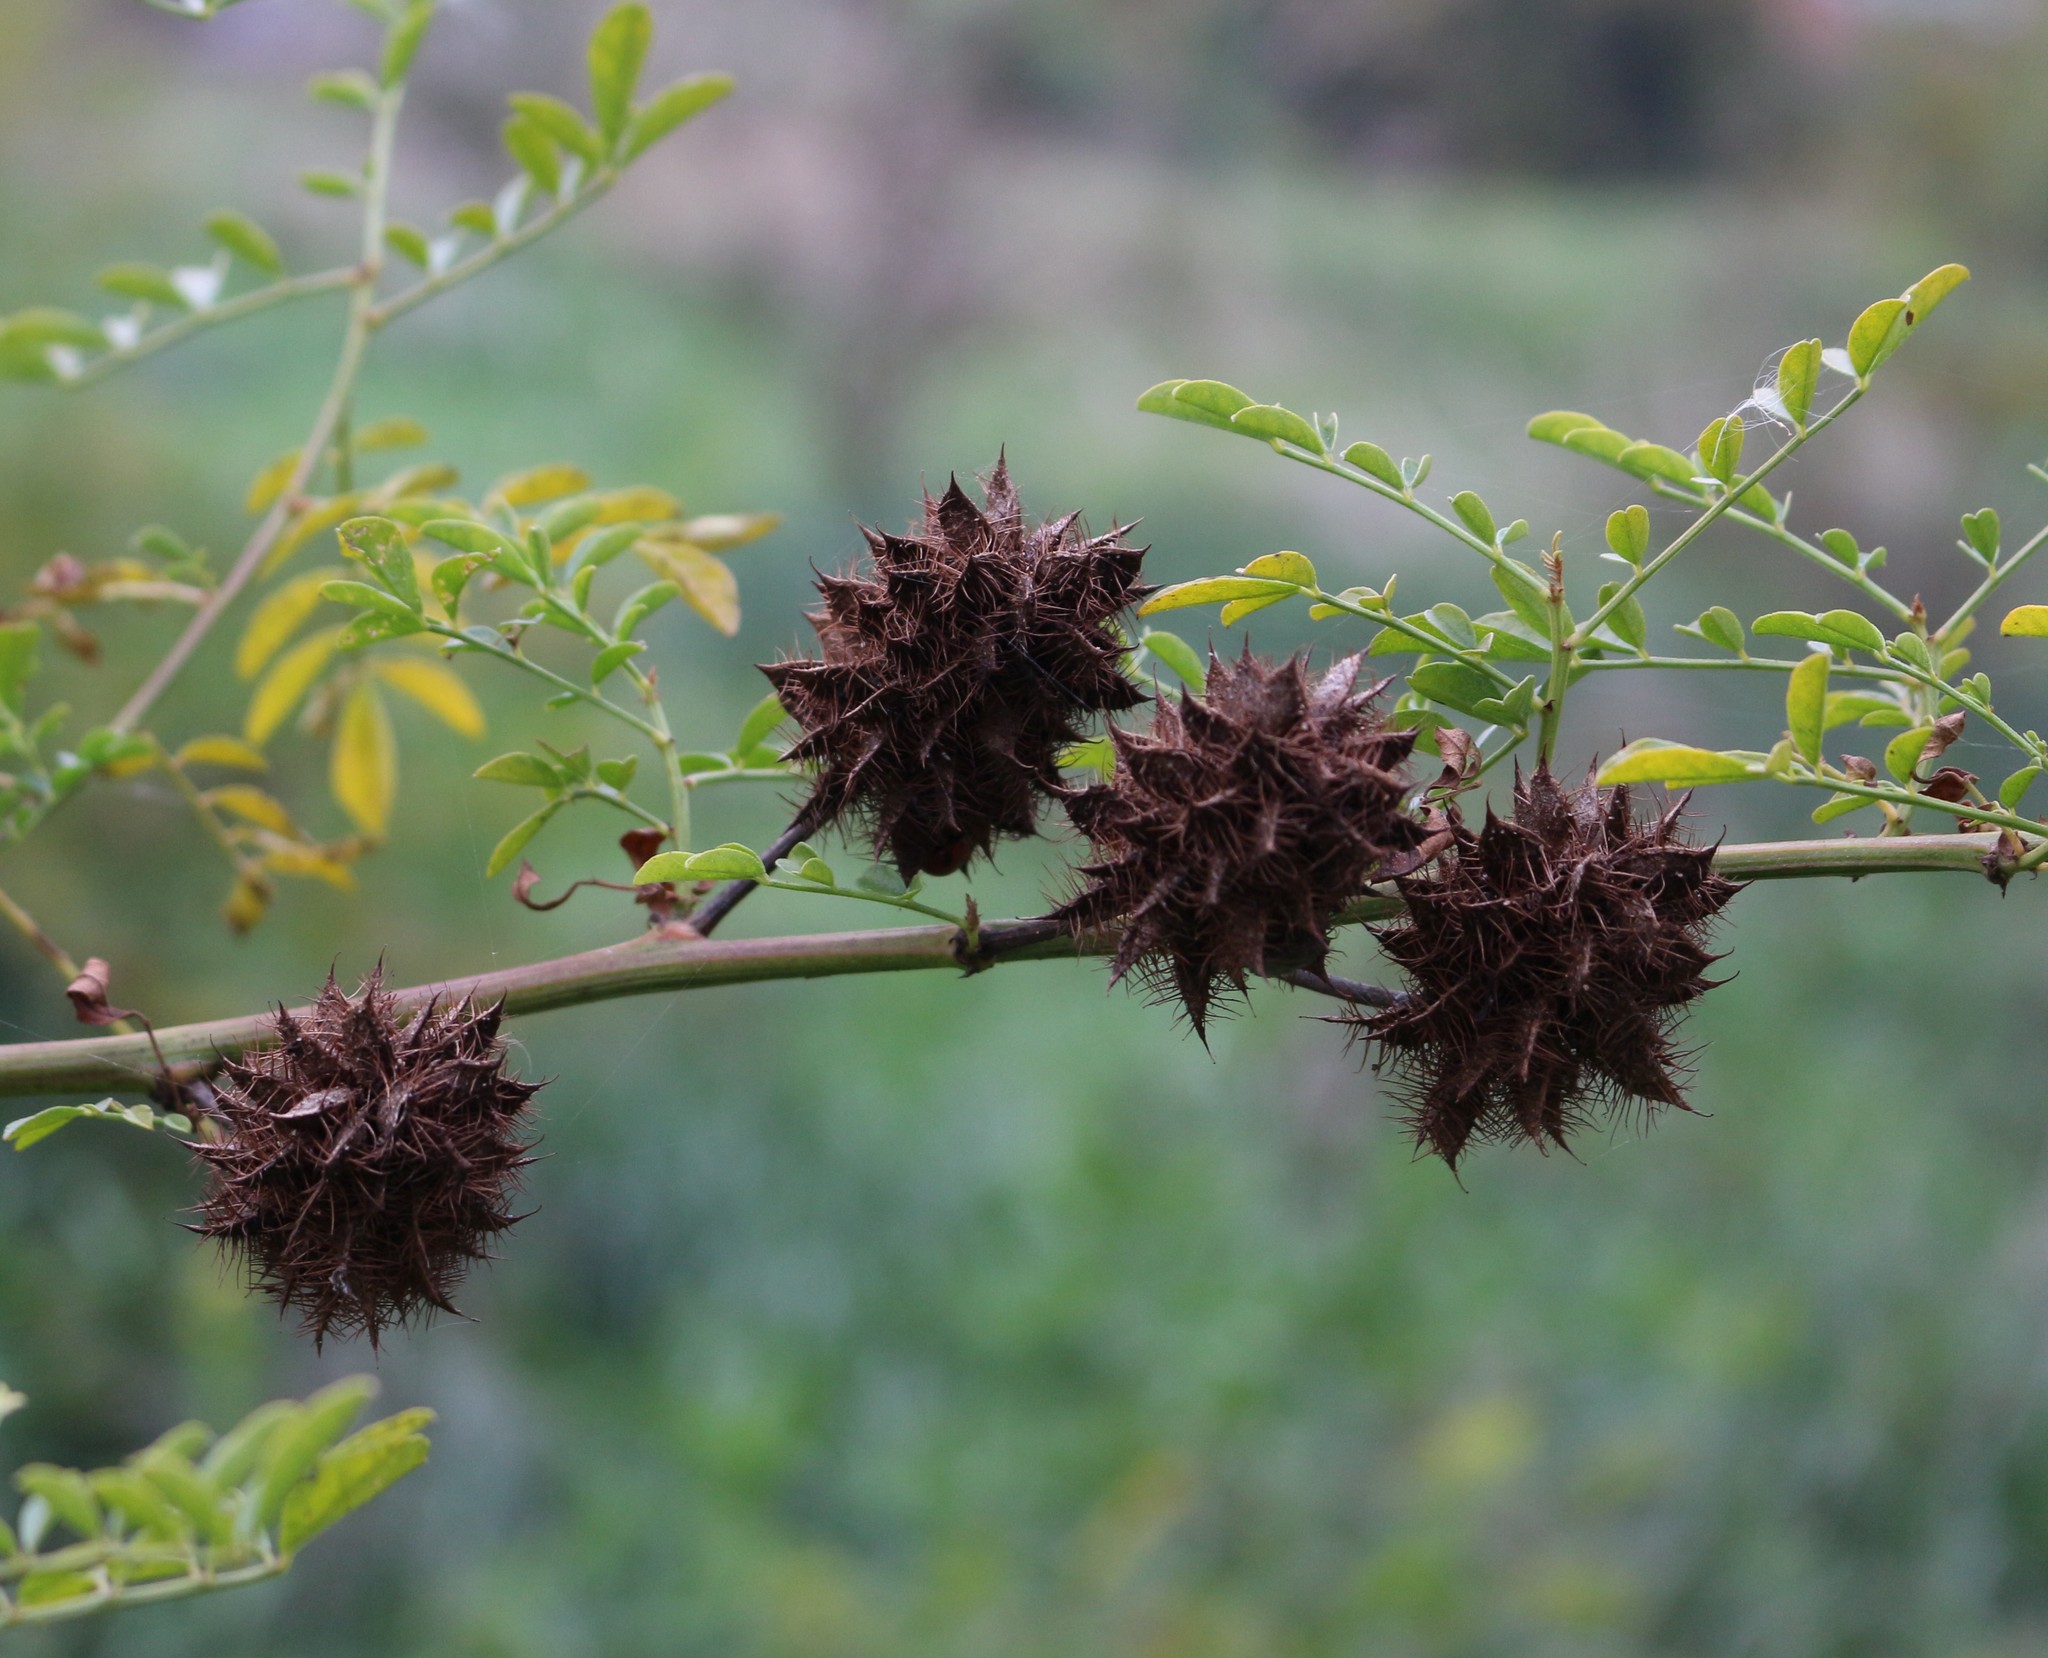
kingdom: Plantae
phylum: Tracheophyta
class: Magnoliopsida
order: Fabales
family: Fabaceae
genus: Glycyrrhiza
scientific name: Glycyrrhiza echinata
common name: German liquorice
